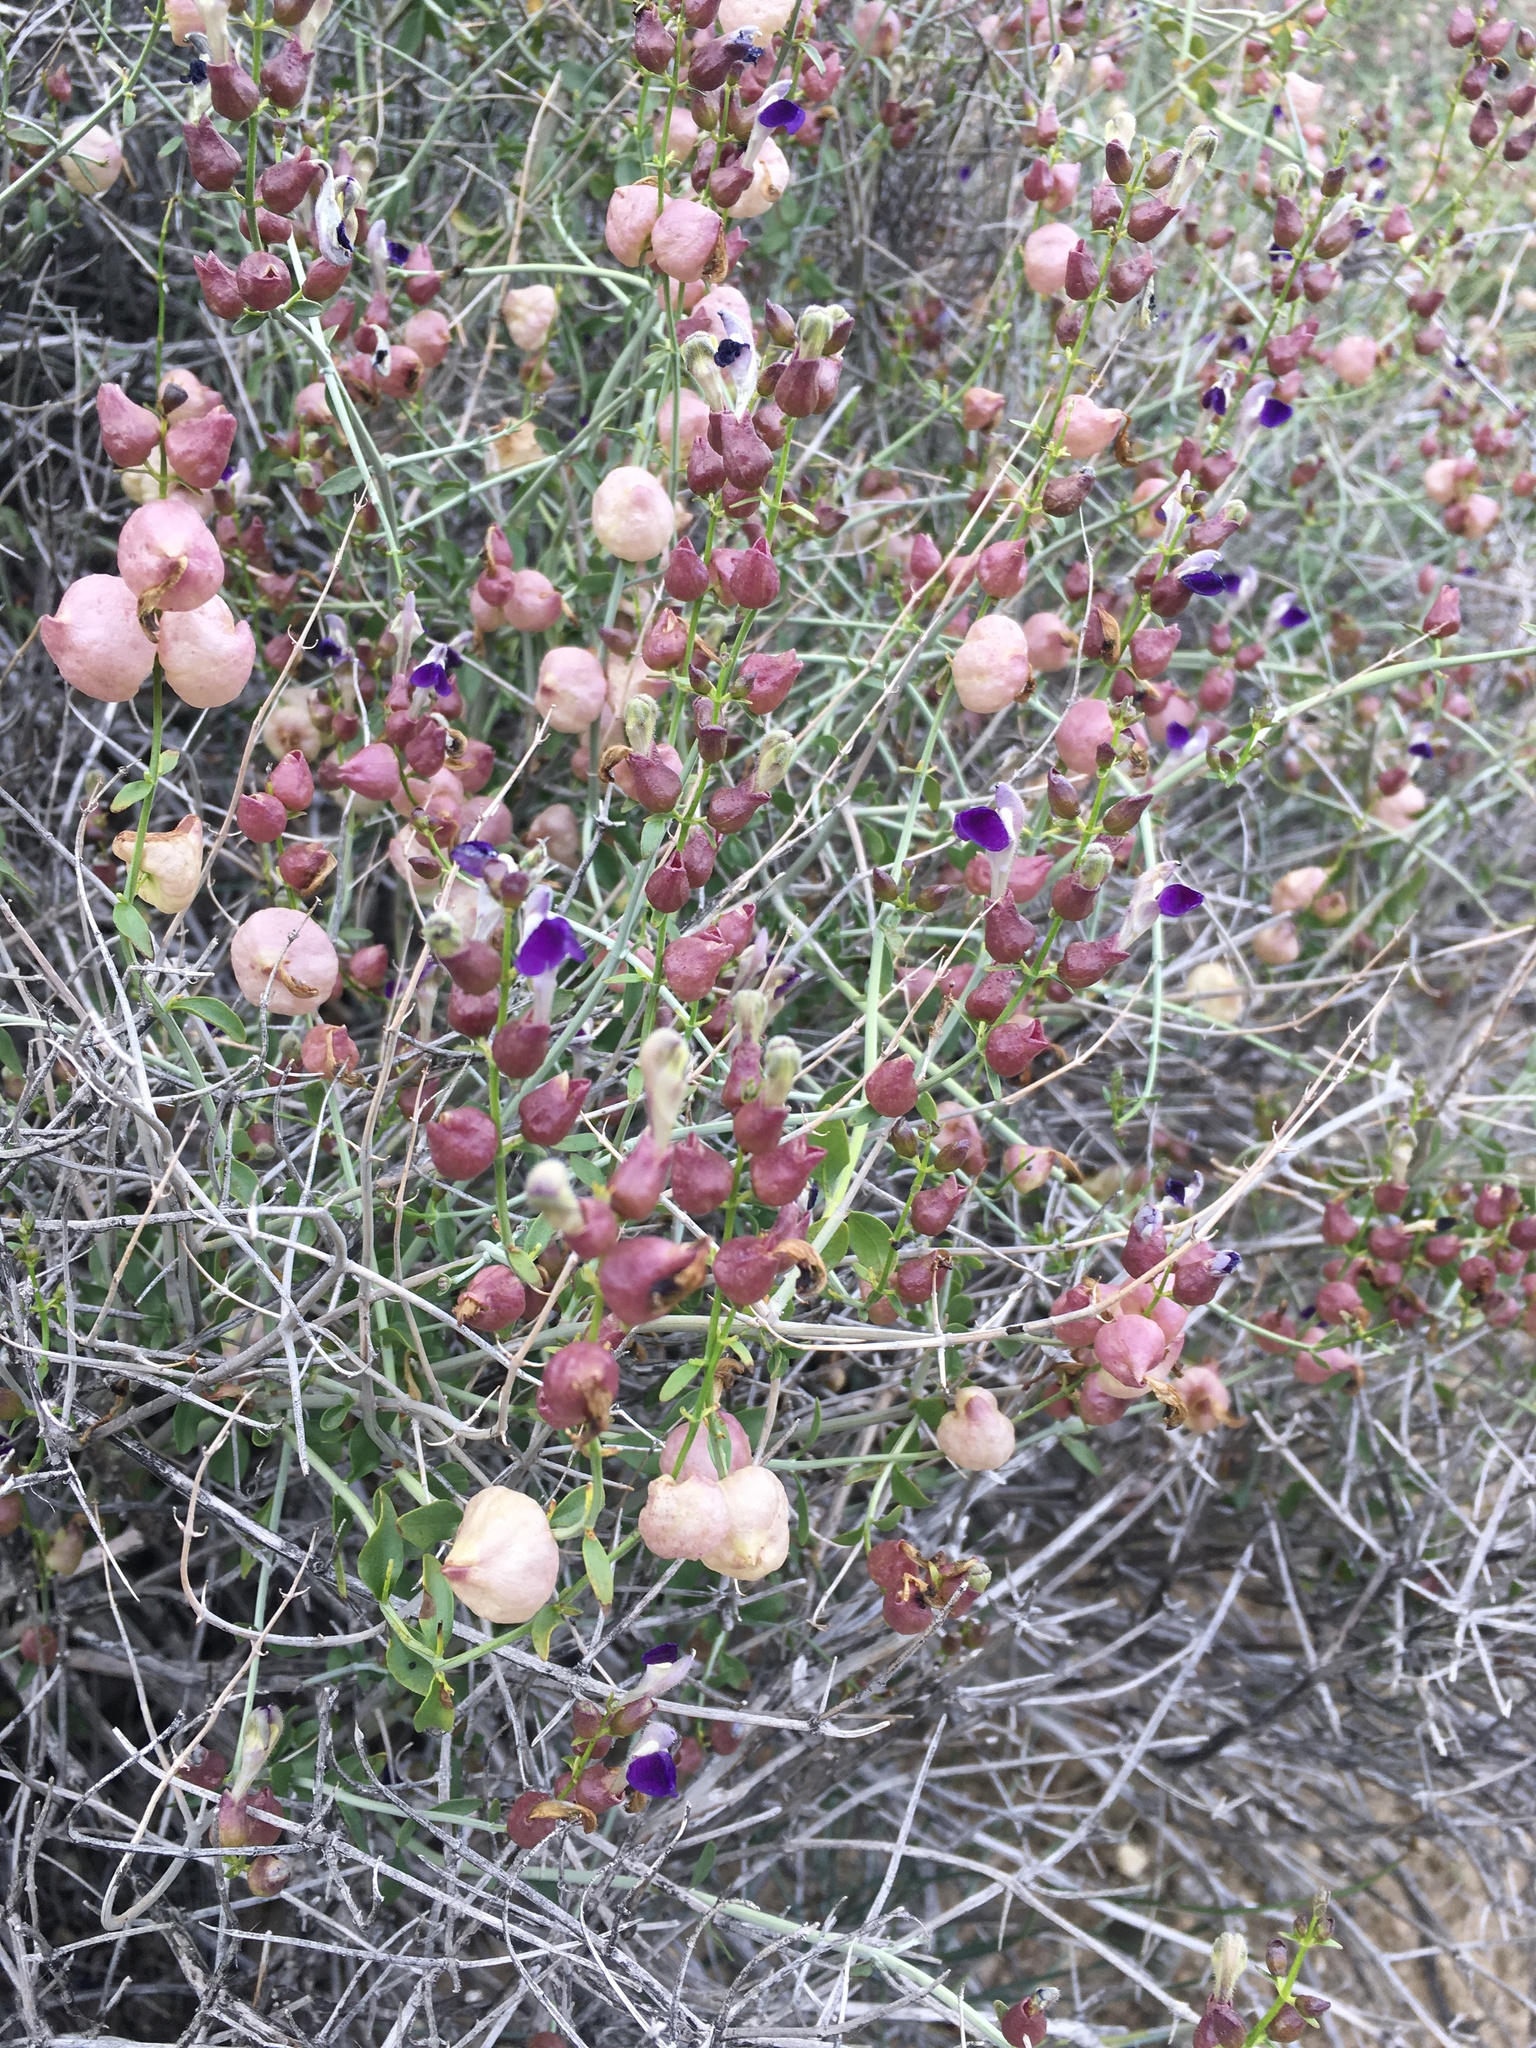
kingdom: Plantae
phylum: Tracheophyta
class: Magnoliopsida
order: Lamiales
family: Lamiaceae
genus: Scutellaria
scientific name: Scutellaria mexicana
